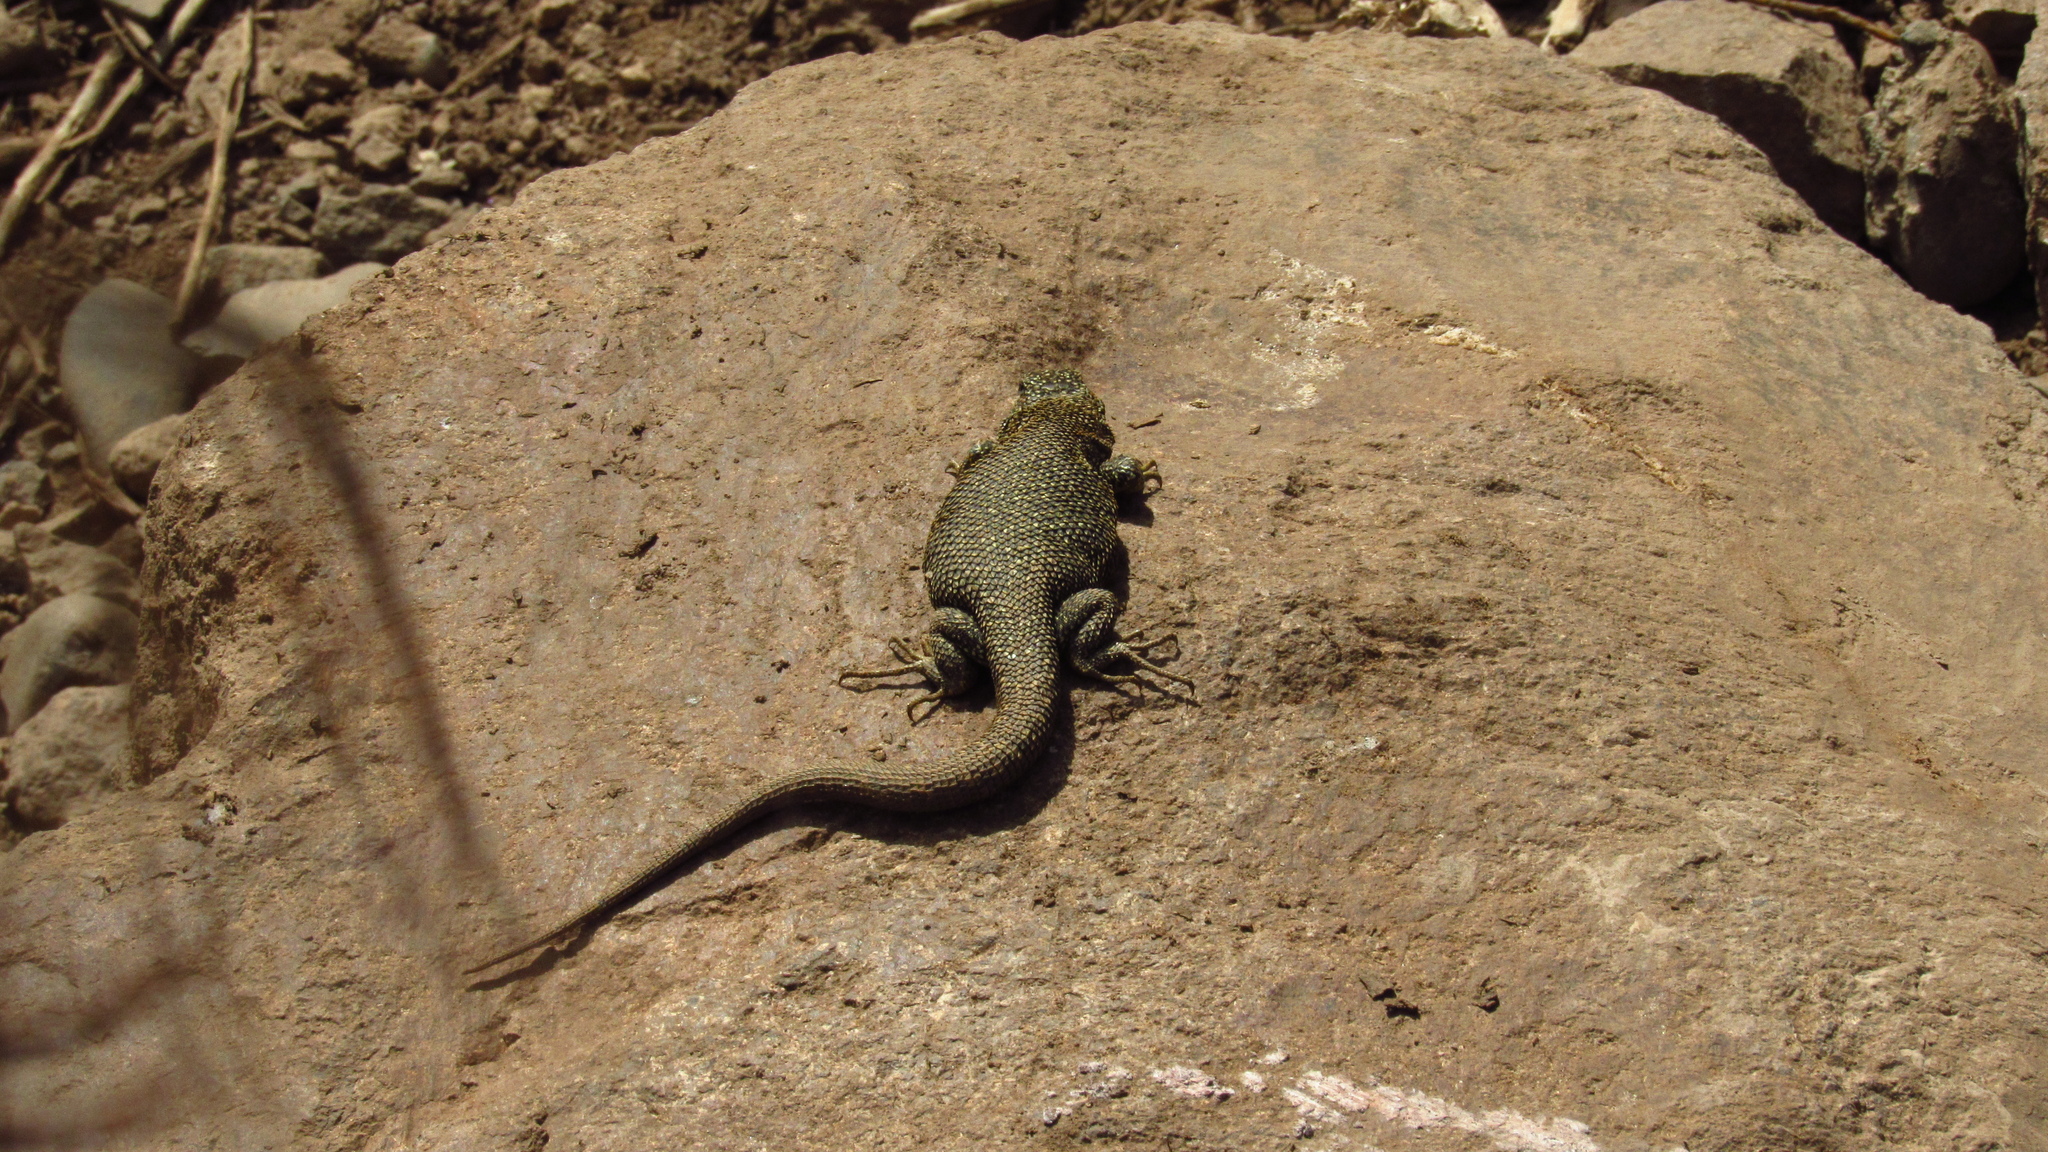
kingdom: Animalia
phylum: Chordata
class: Squamata
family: Liolaemidae
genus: Liolaemus
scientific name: Liolaemus bellii
